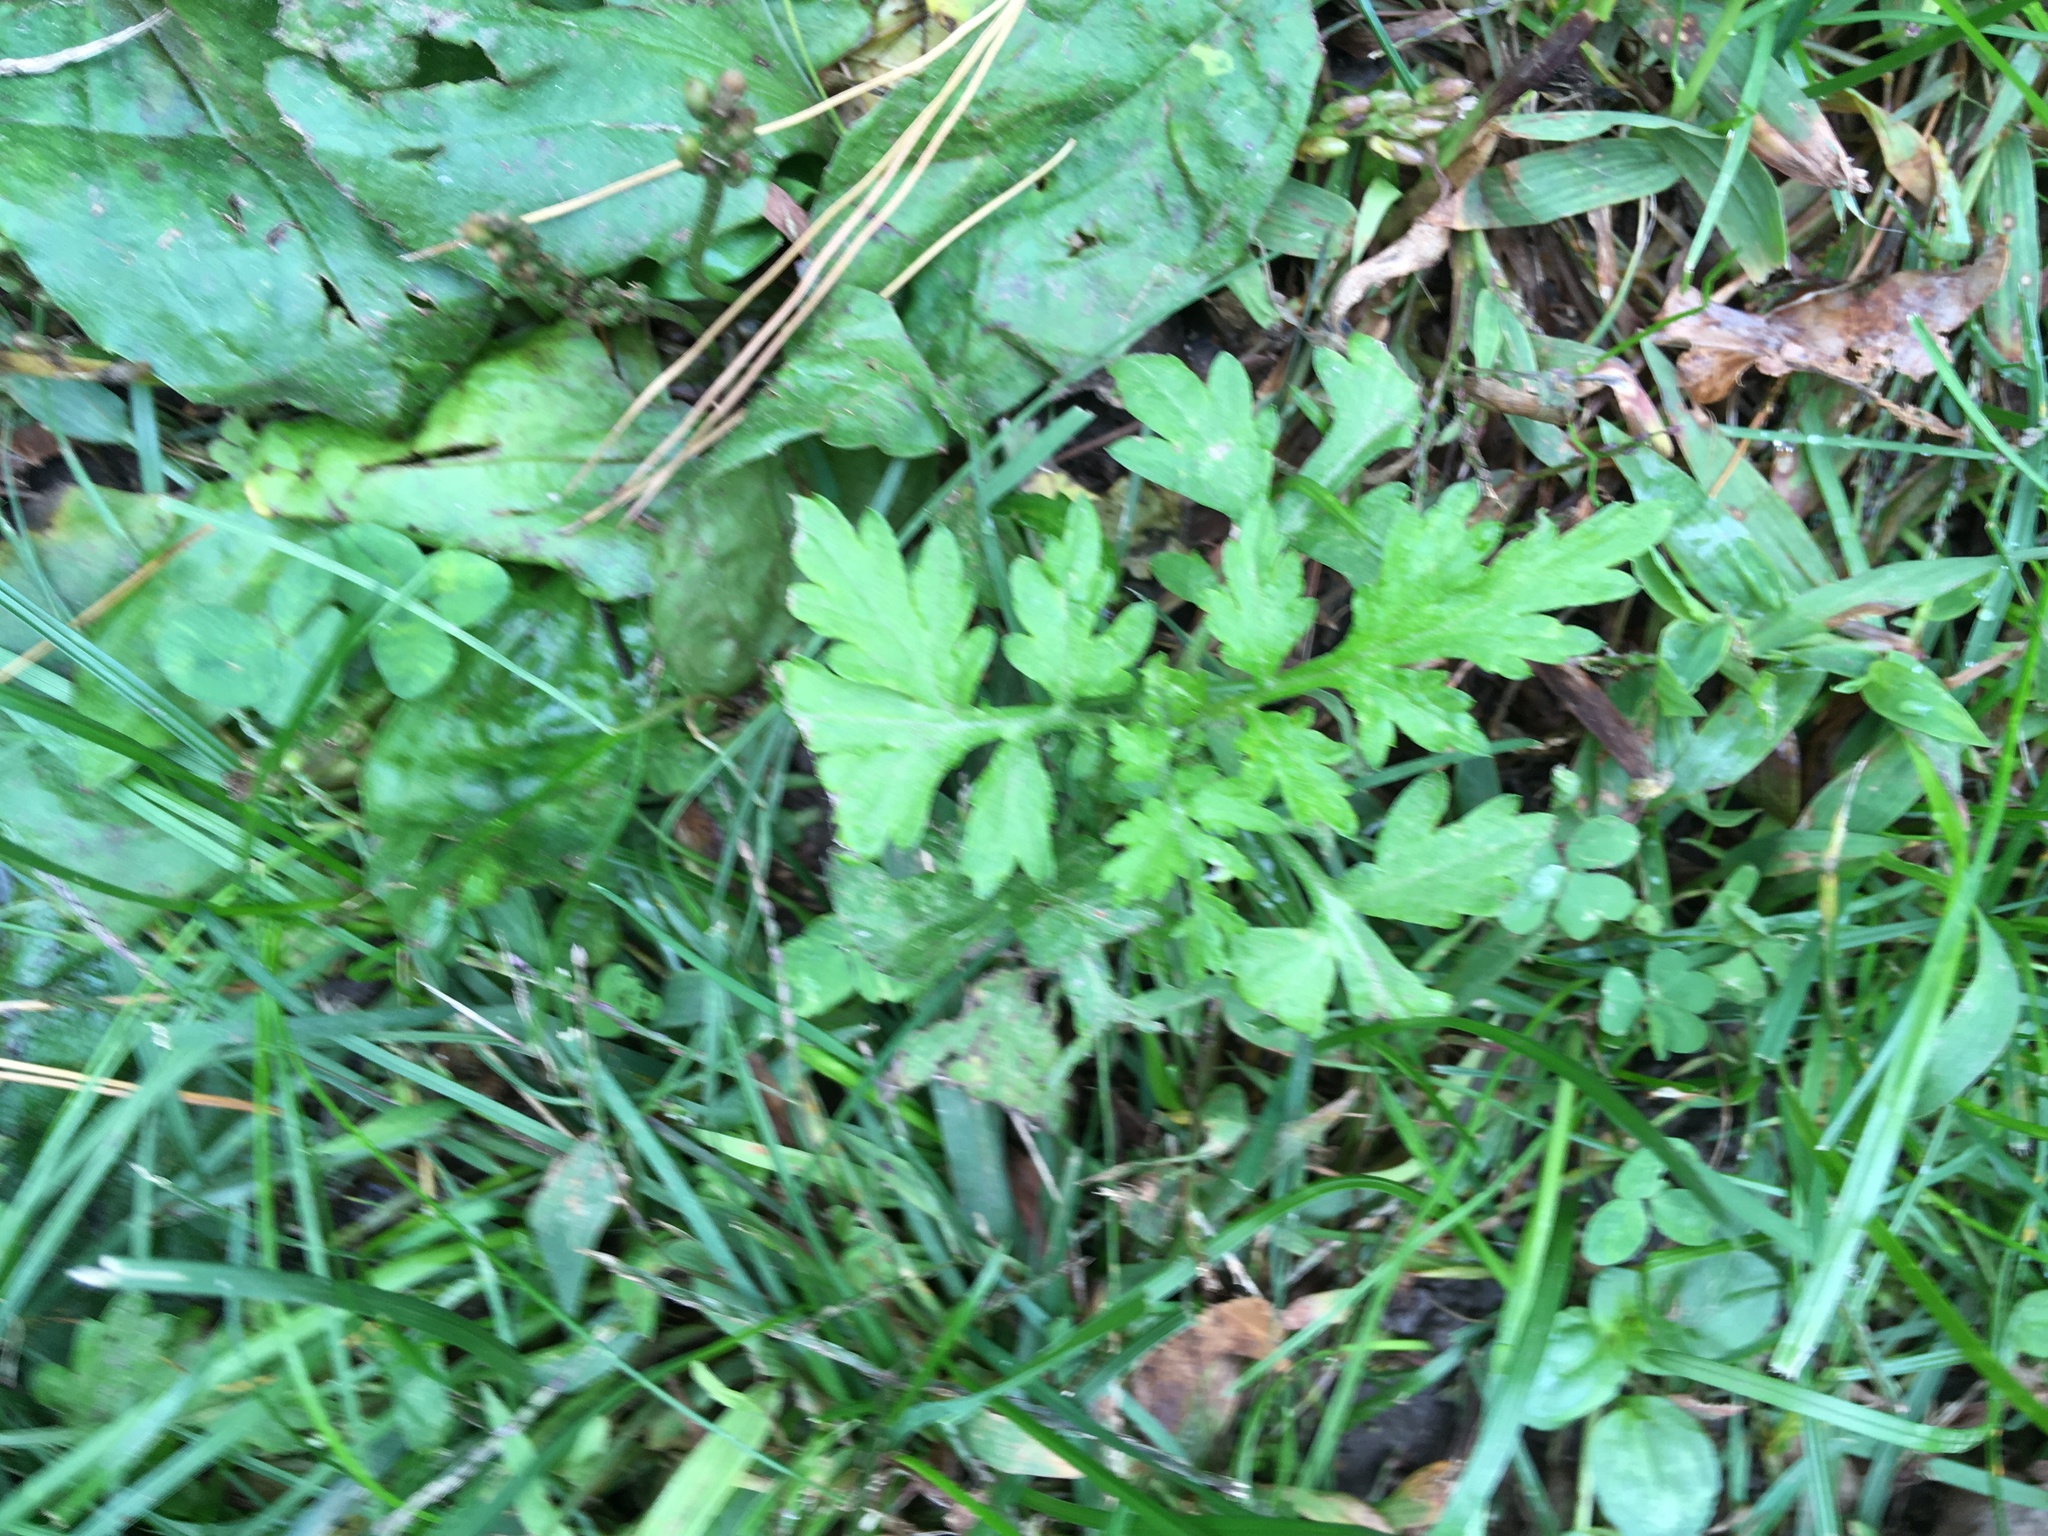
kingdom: Plantae
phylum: Tracheophyta
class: Magnoliopsida
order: Asterales
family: Asteraceae
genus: Artemisia
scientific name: Artemisia vulgaris
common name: Mugwort
